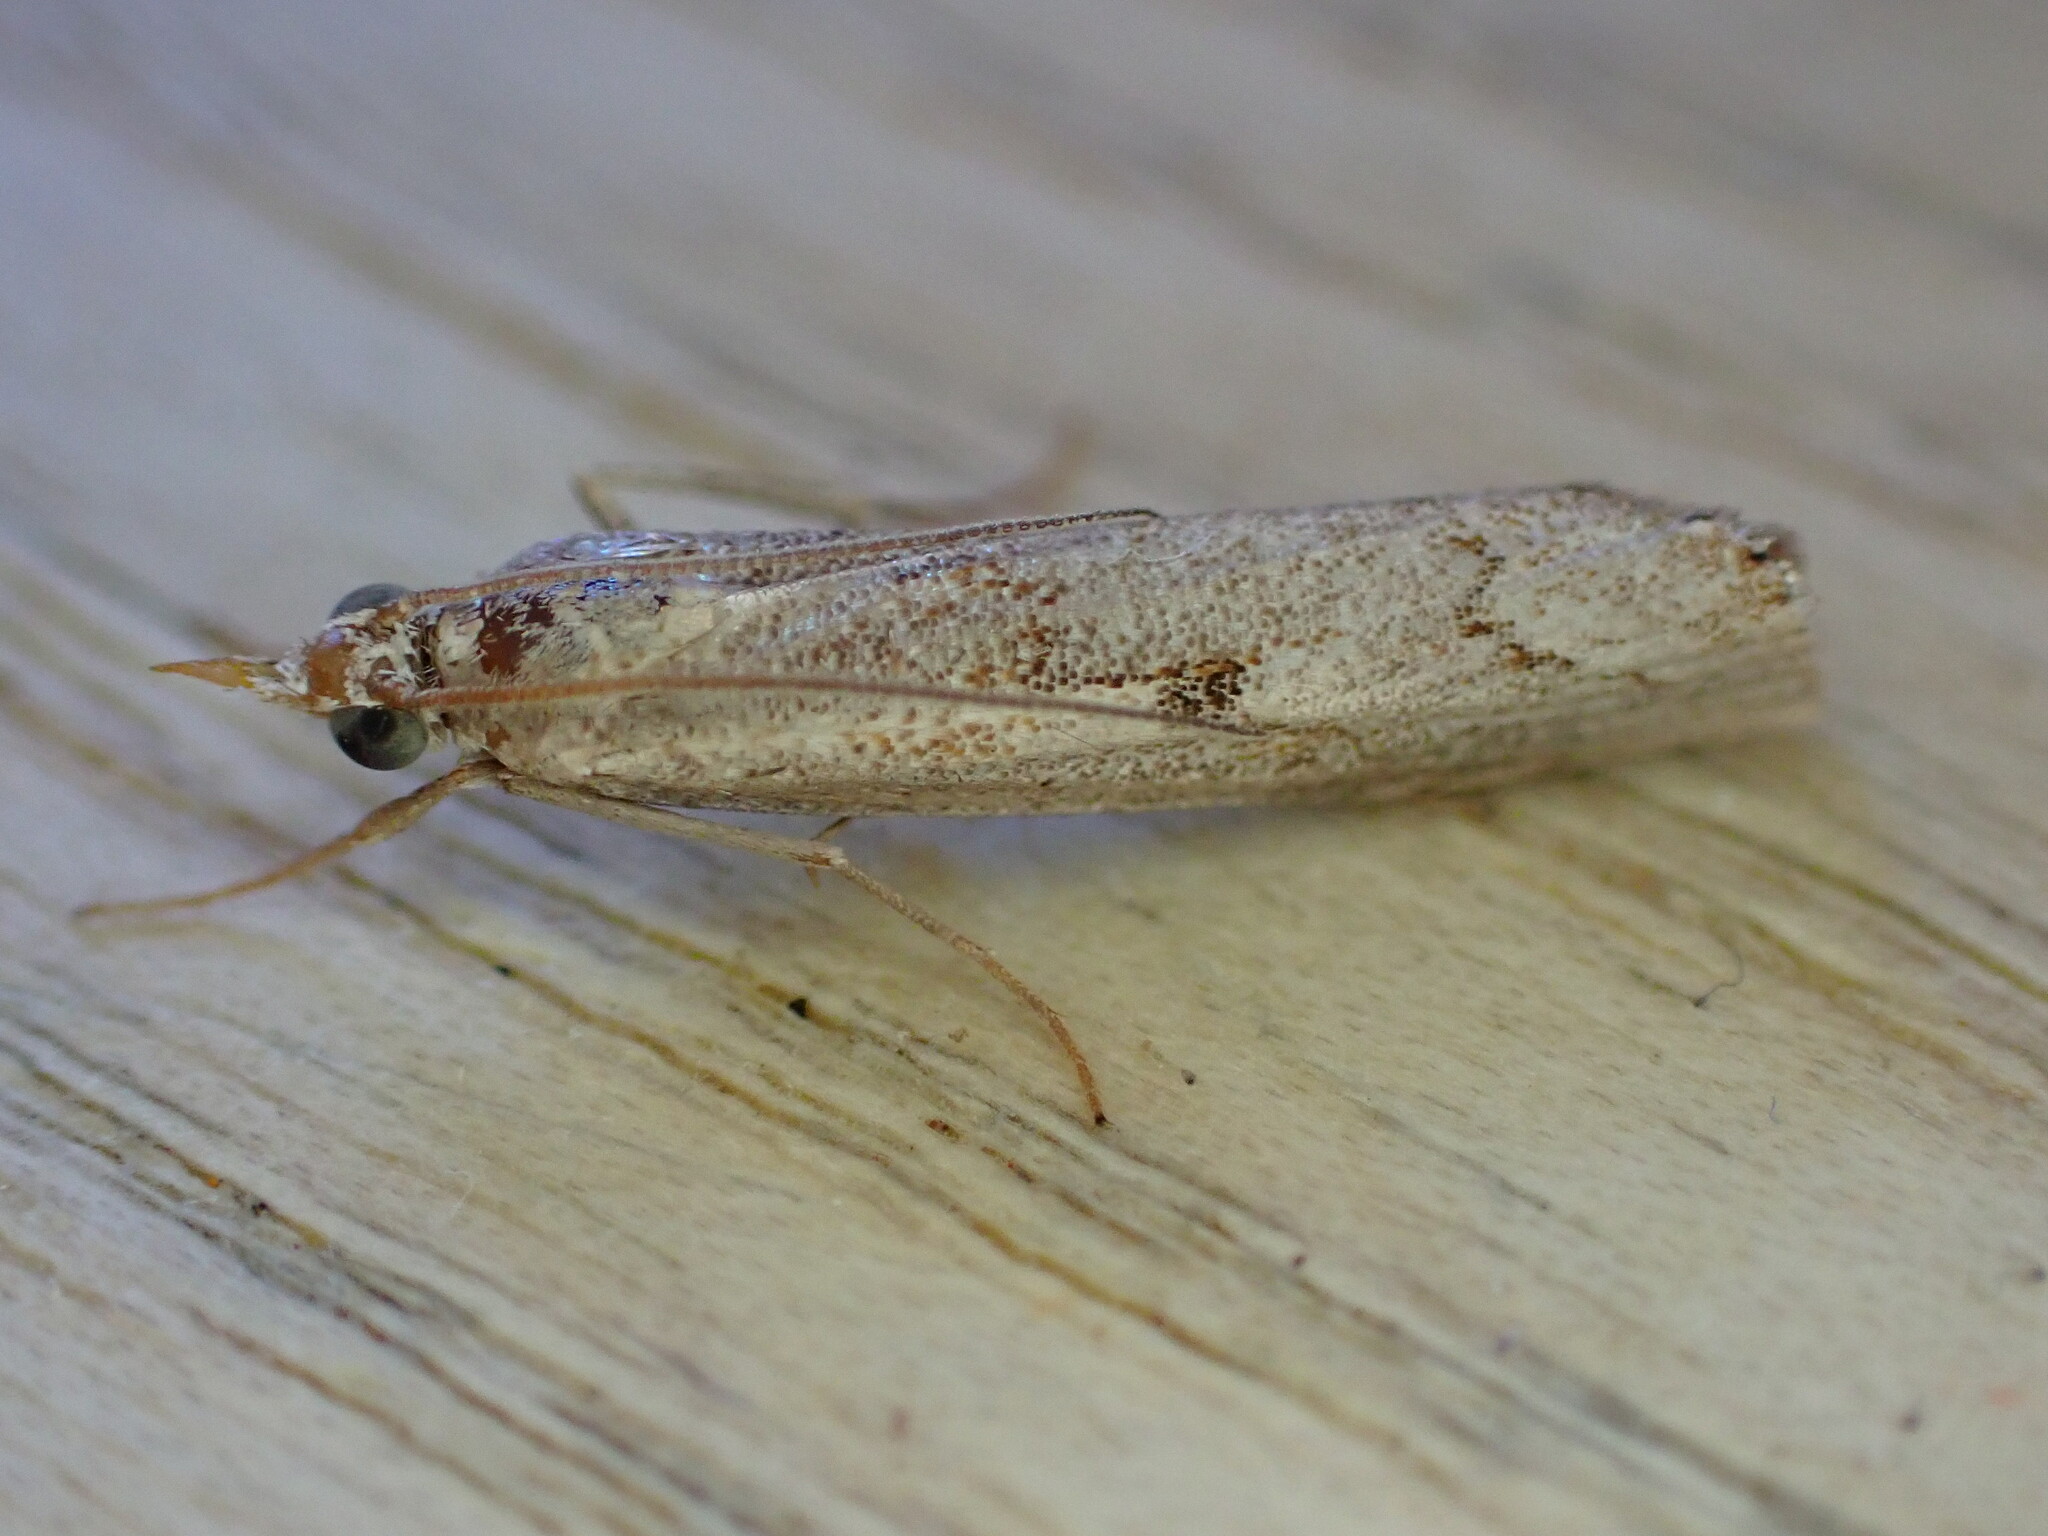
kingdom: Animalia
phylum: Arthropoda
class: Insecta
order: Lepidoptera
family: Crambidae
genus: Agriphila
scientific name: Agriphila geniculea
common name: Elbow-stripe grass-veneer
